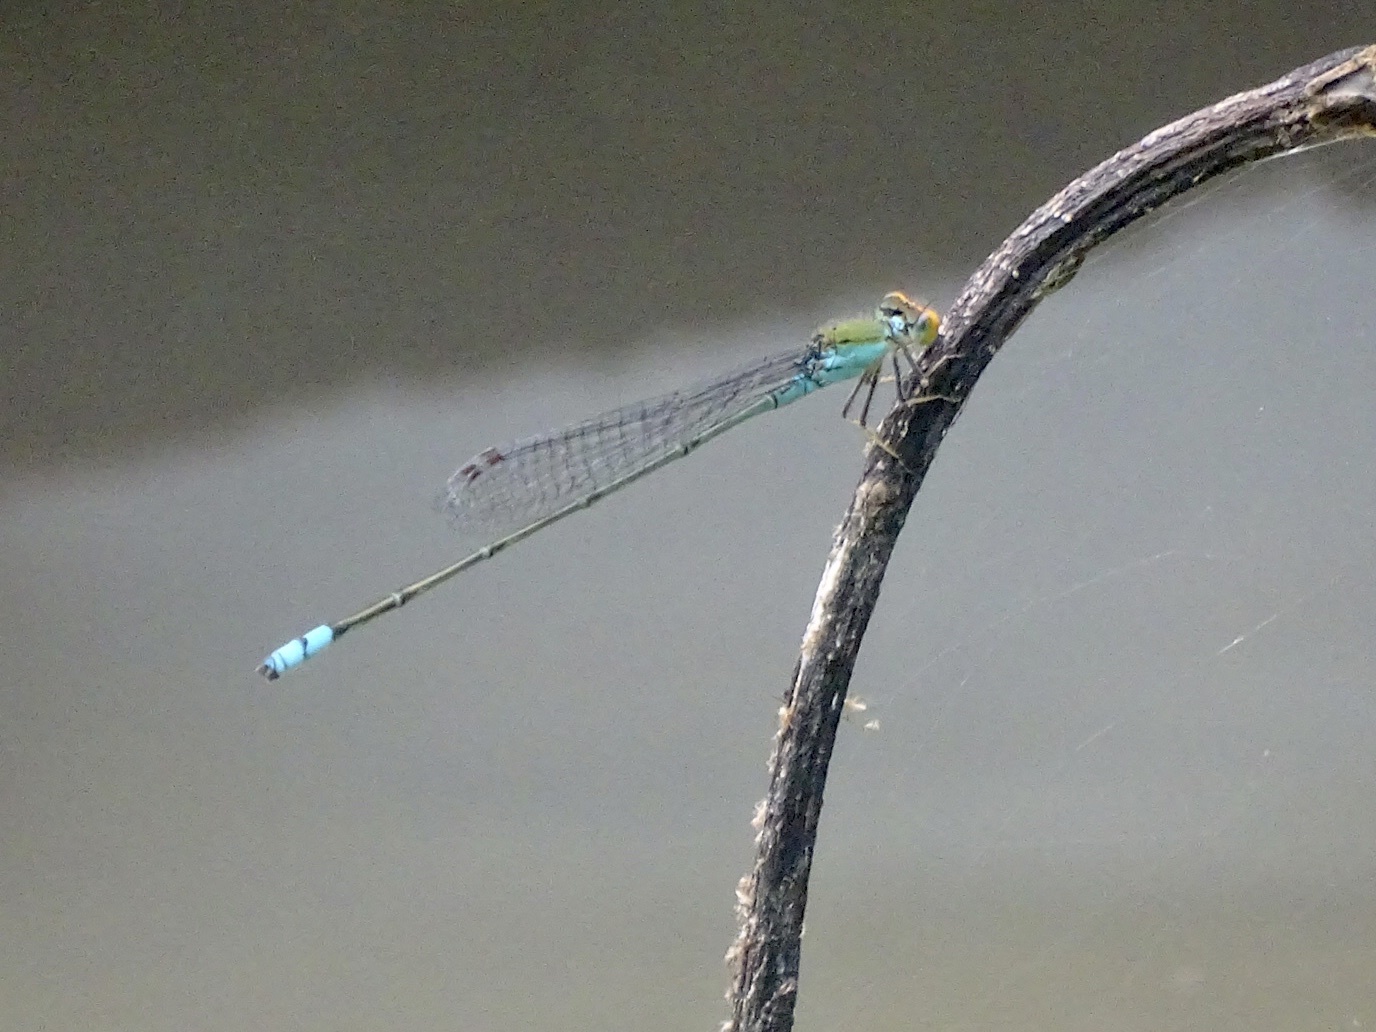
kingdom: Animalia
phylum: Arthropoda
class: Insecta
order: Odonata
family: Coenagrionidae
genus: Pseudagrion
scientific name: Pseudagrion rubriceps
